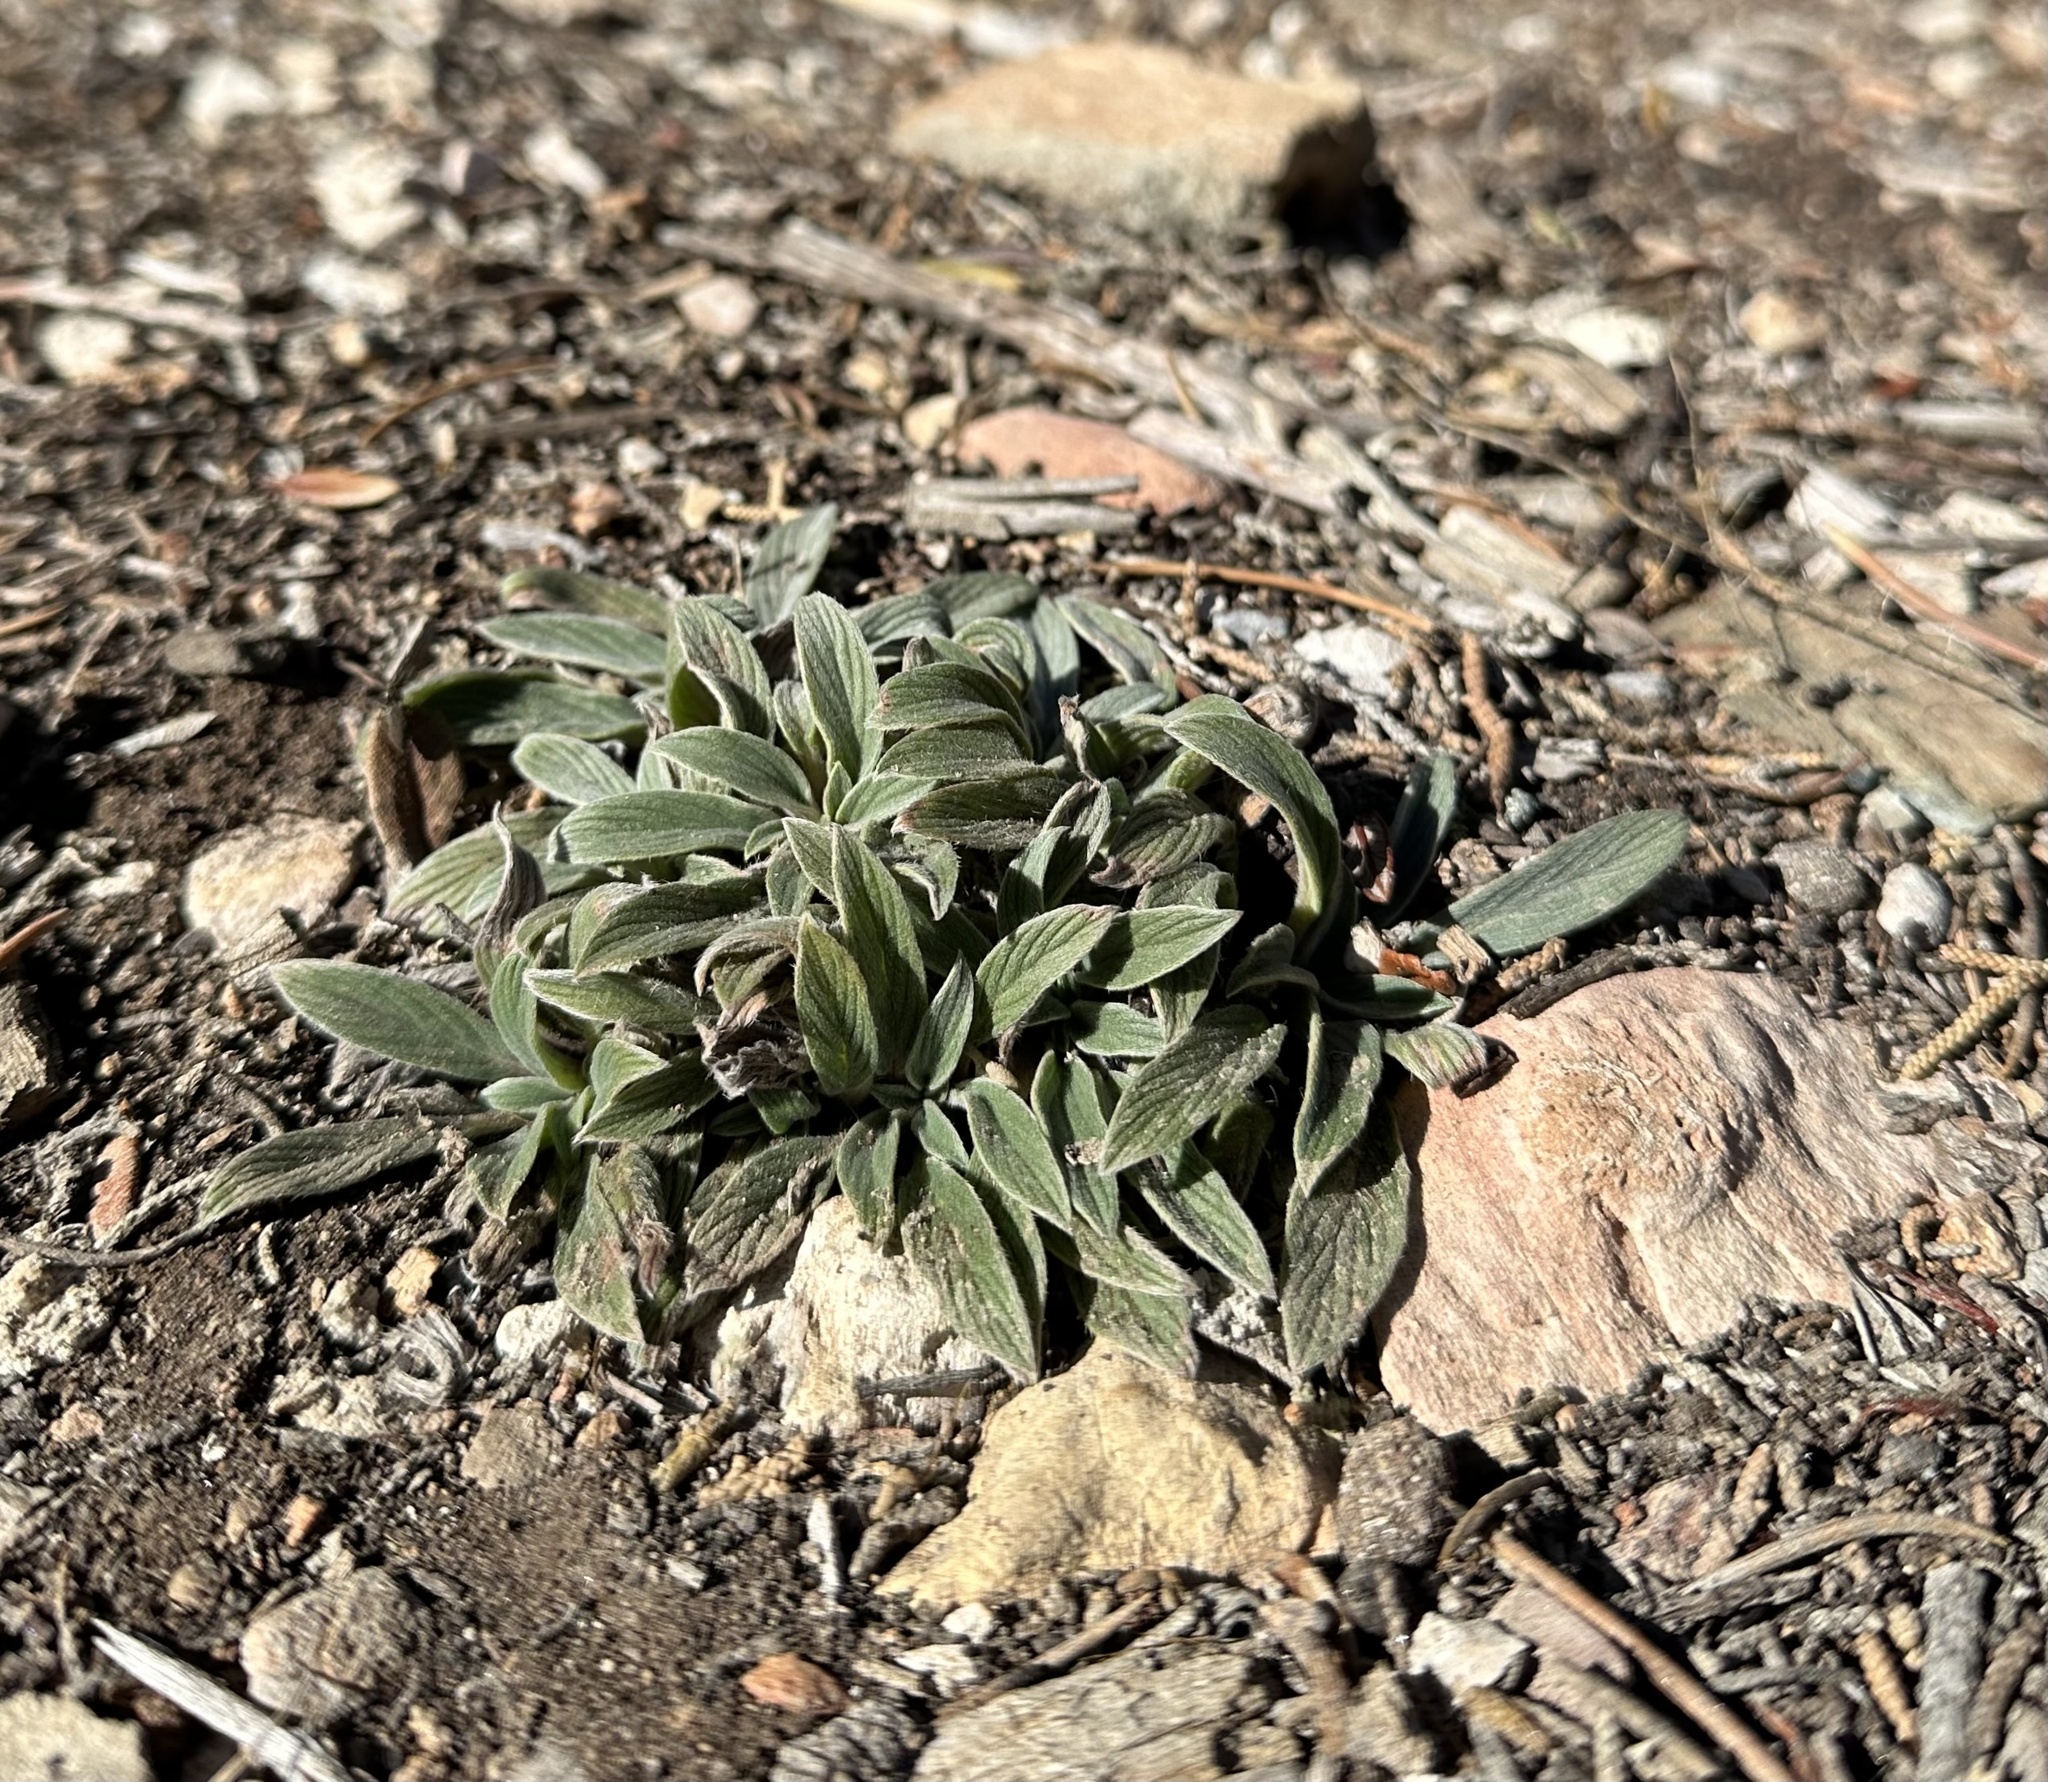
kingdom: Plantae
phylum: Tracheophyta
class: Magnoliopsida
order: Boraginales
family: Hydrophyllaceae
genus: Phacelia
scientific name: Phacelia imbricata
